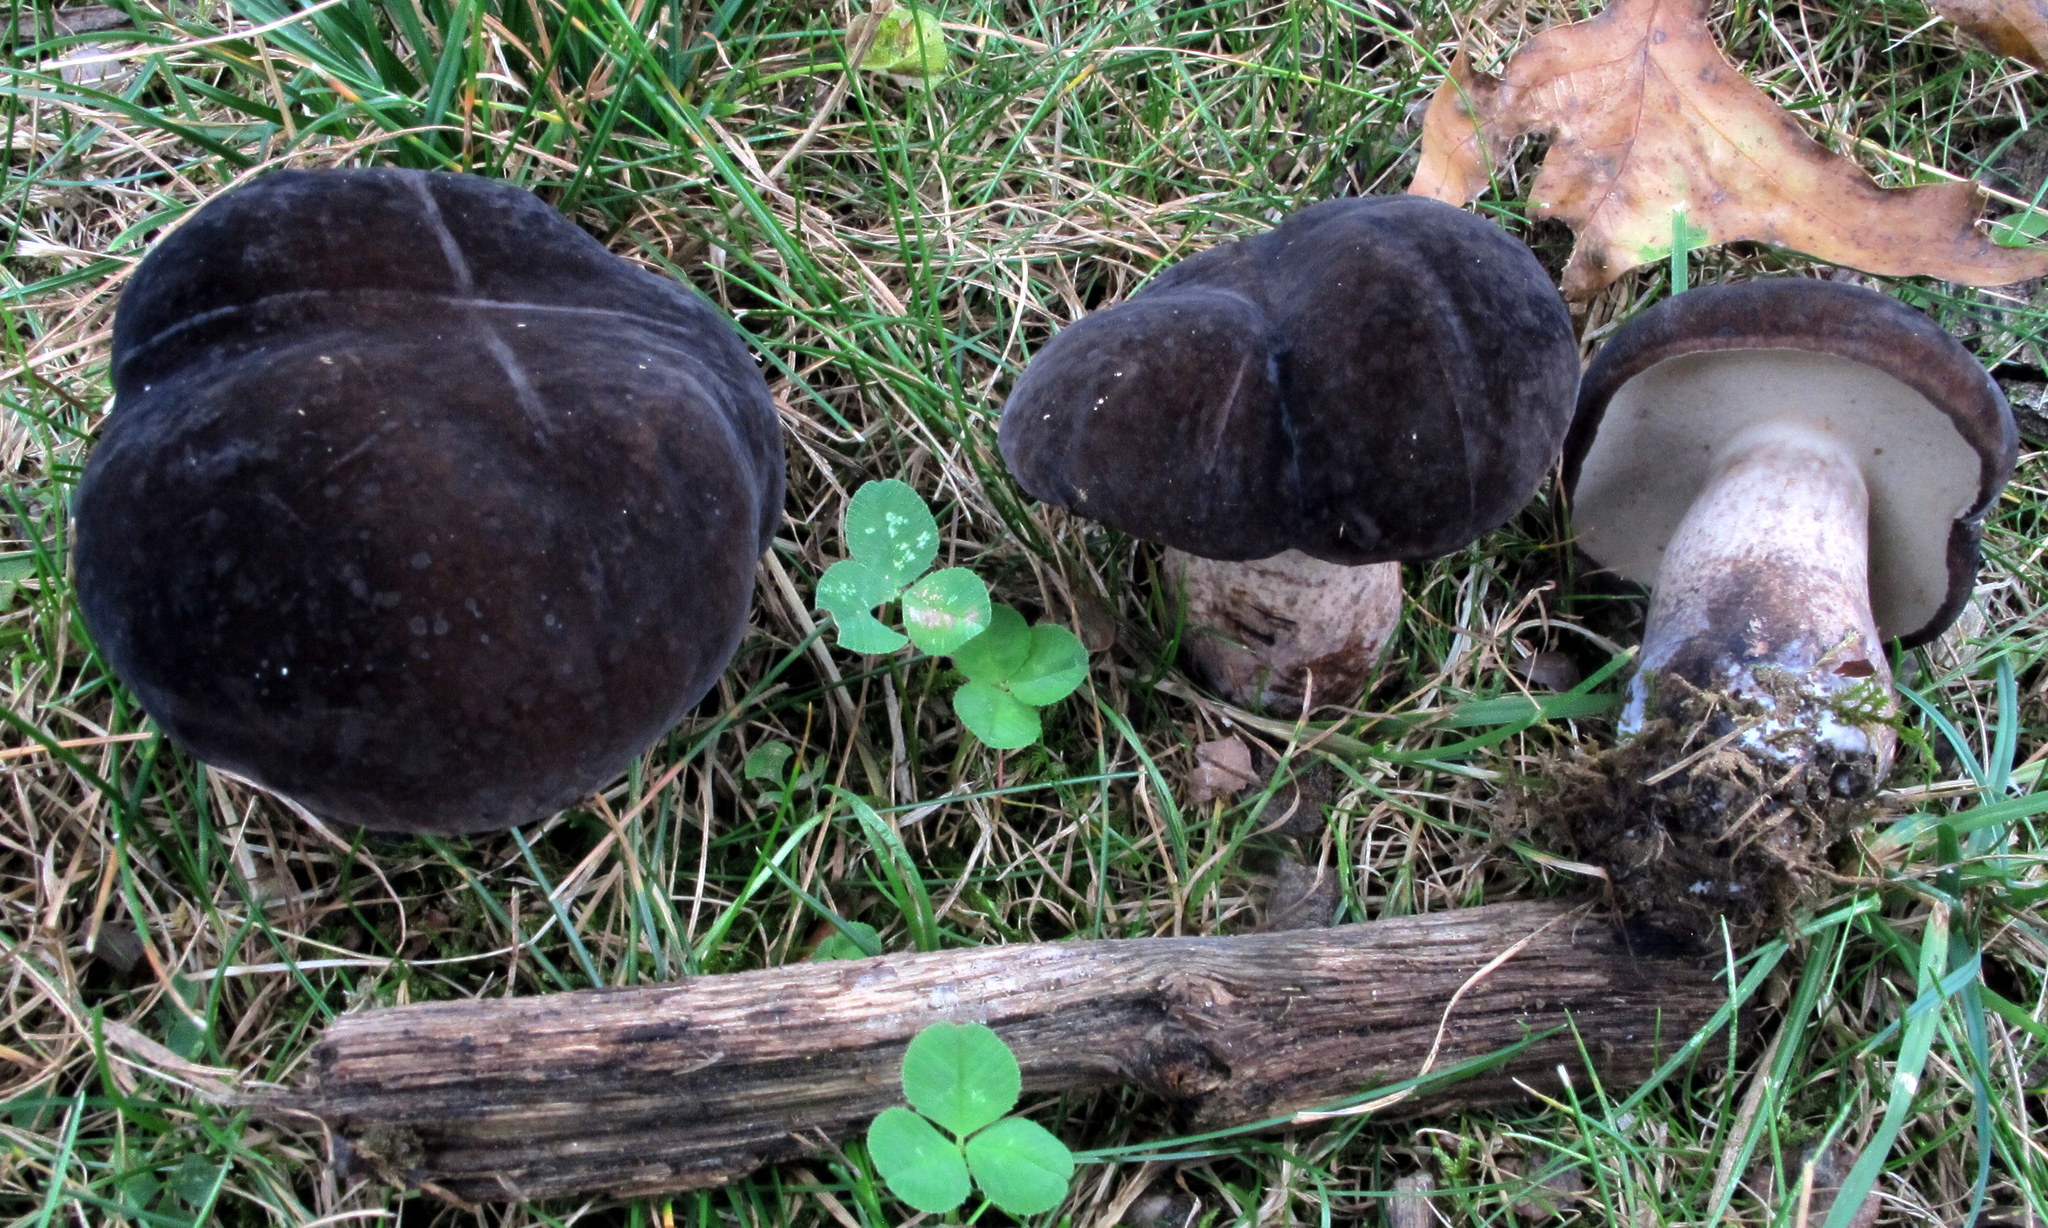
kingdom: Fungi
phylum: Basidiomycota
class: Agaricomycetes
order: Boletales
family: Boletaceae
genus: Tylopilus
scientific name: Tylopilus alboater
